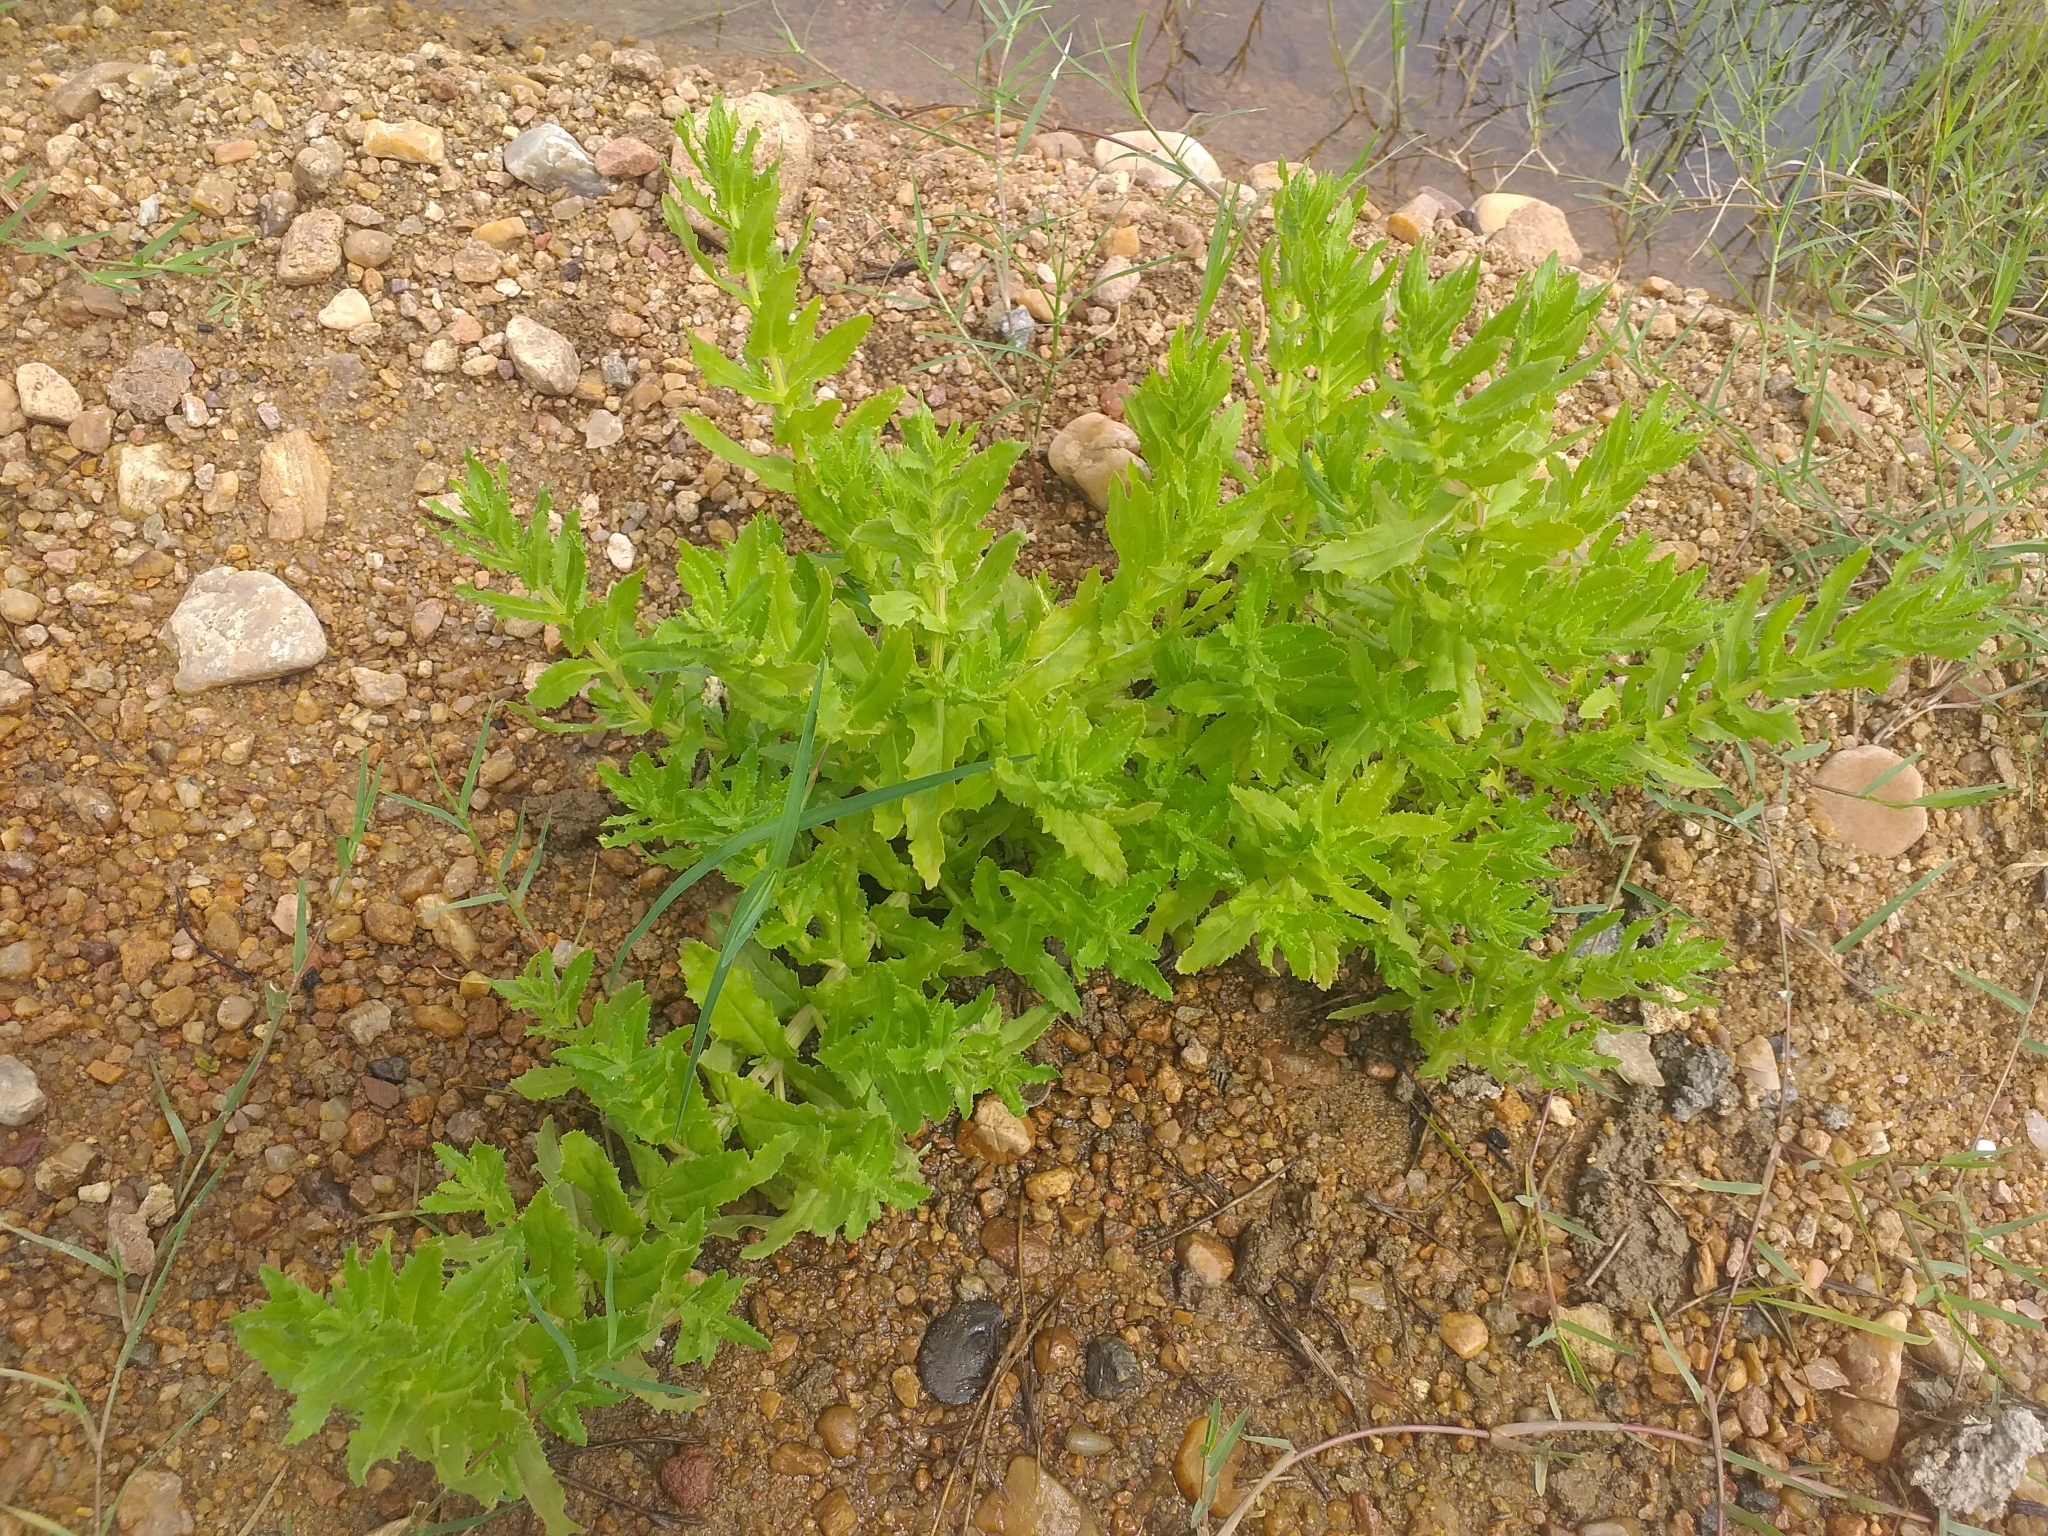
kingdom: Plantae
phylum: Tracheophyta
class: Magnoliopsida
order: Lamiales
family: Plantaginaceae
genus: Stemodia
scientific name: Stemodia maritima
